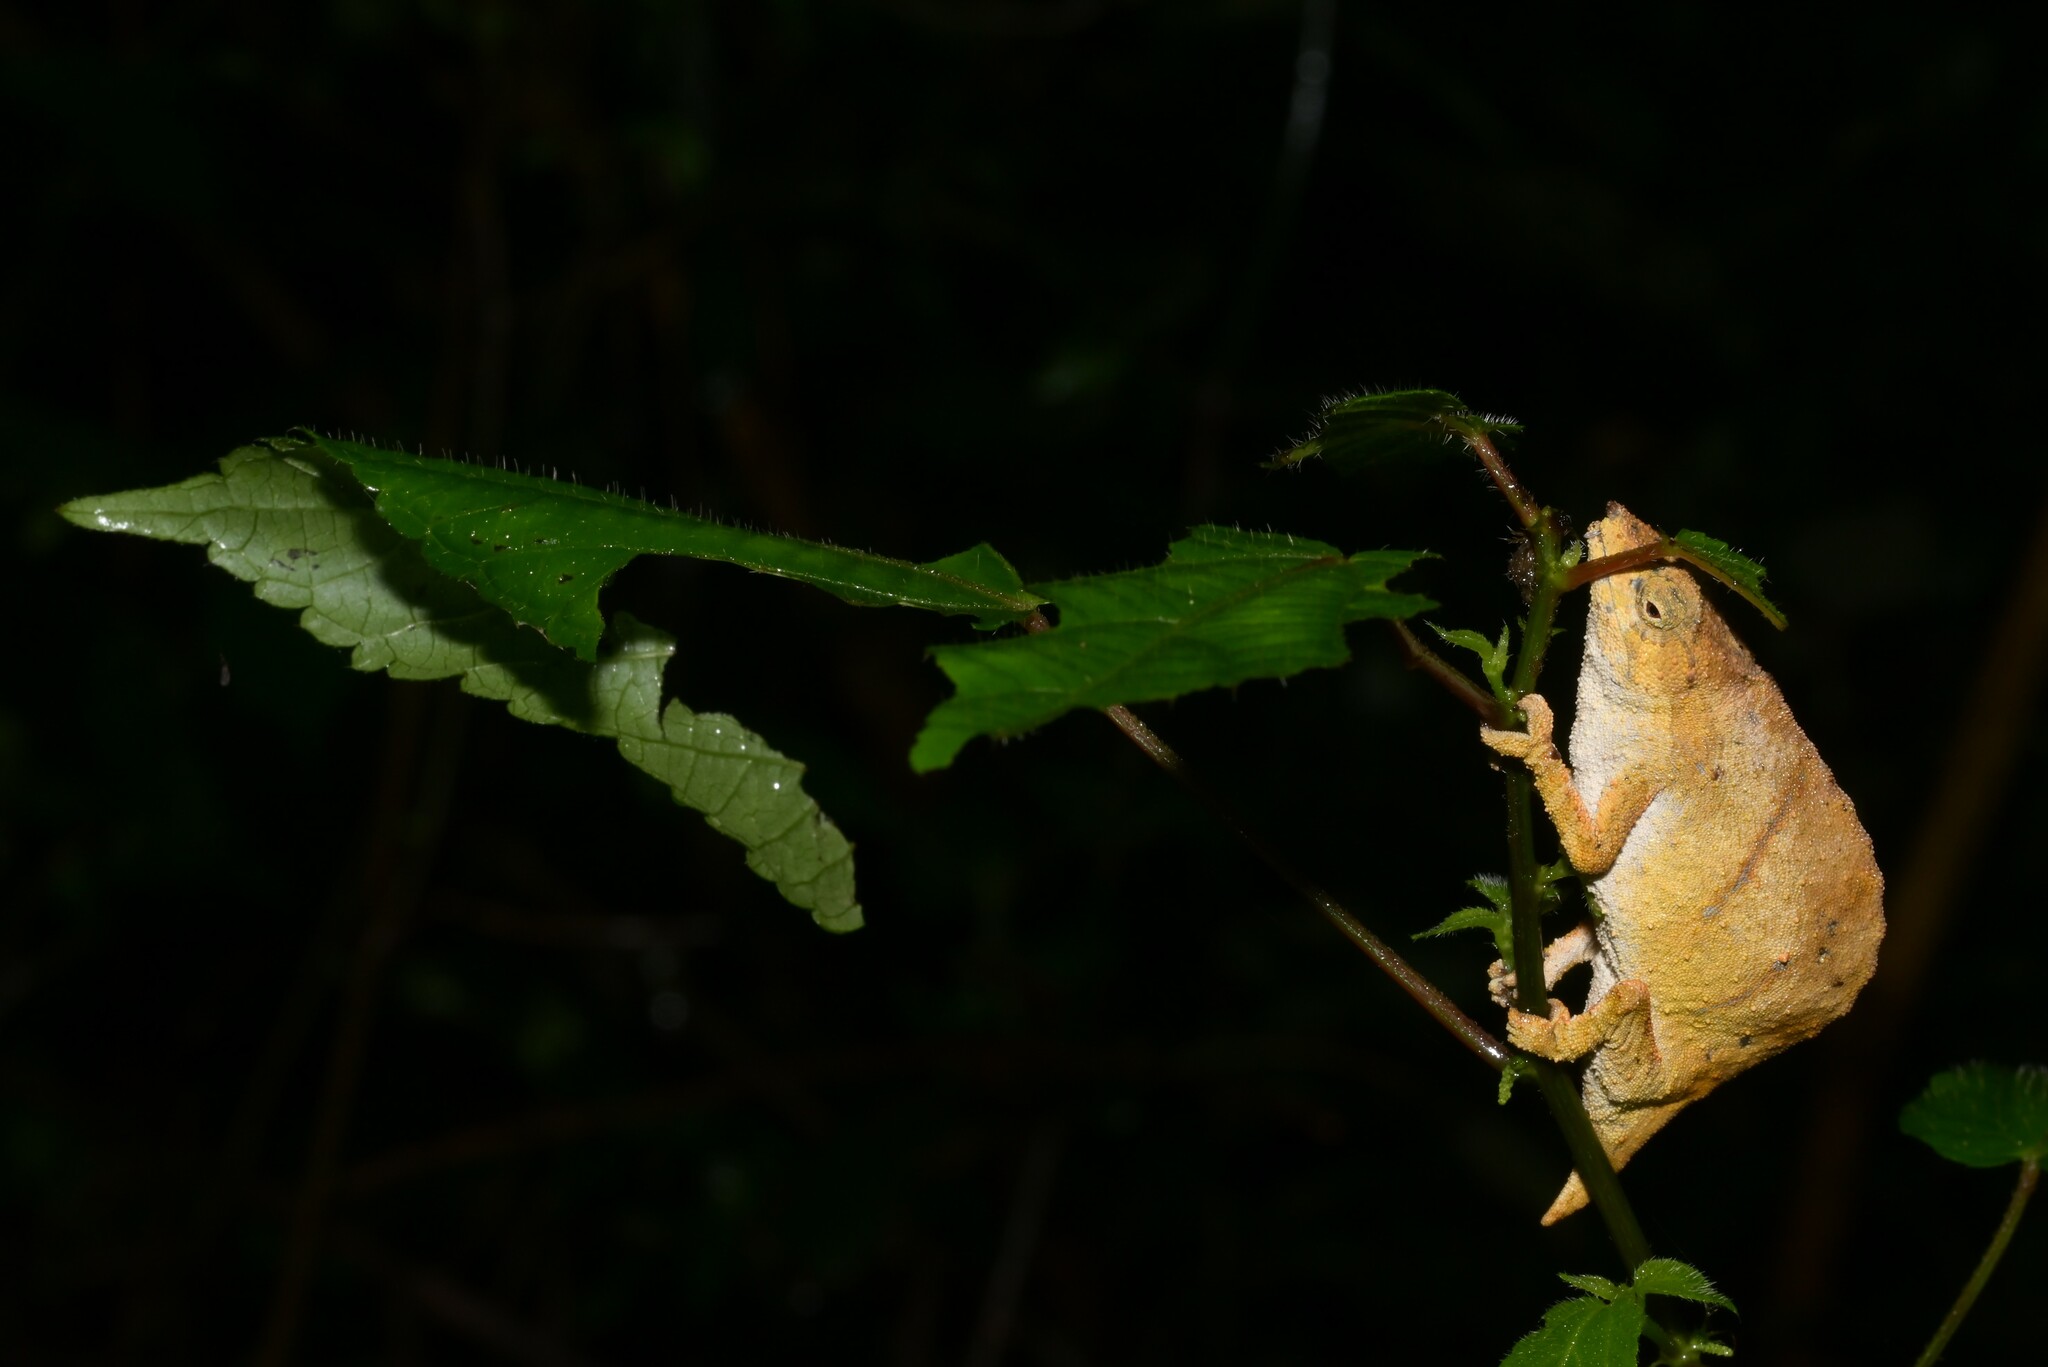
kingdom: Animalia
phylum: Chordata
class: Squamata
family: Chamaeleonidae
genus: Rhampholeon
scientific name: Rhampholeon nchisiensis
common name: South african stumptail chameleon
